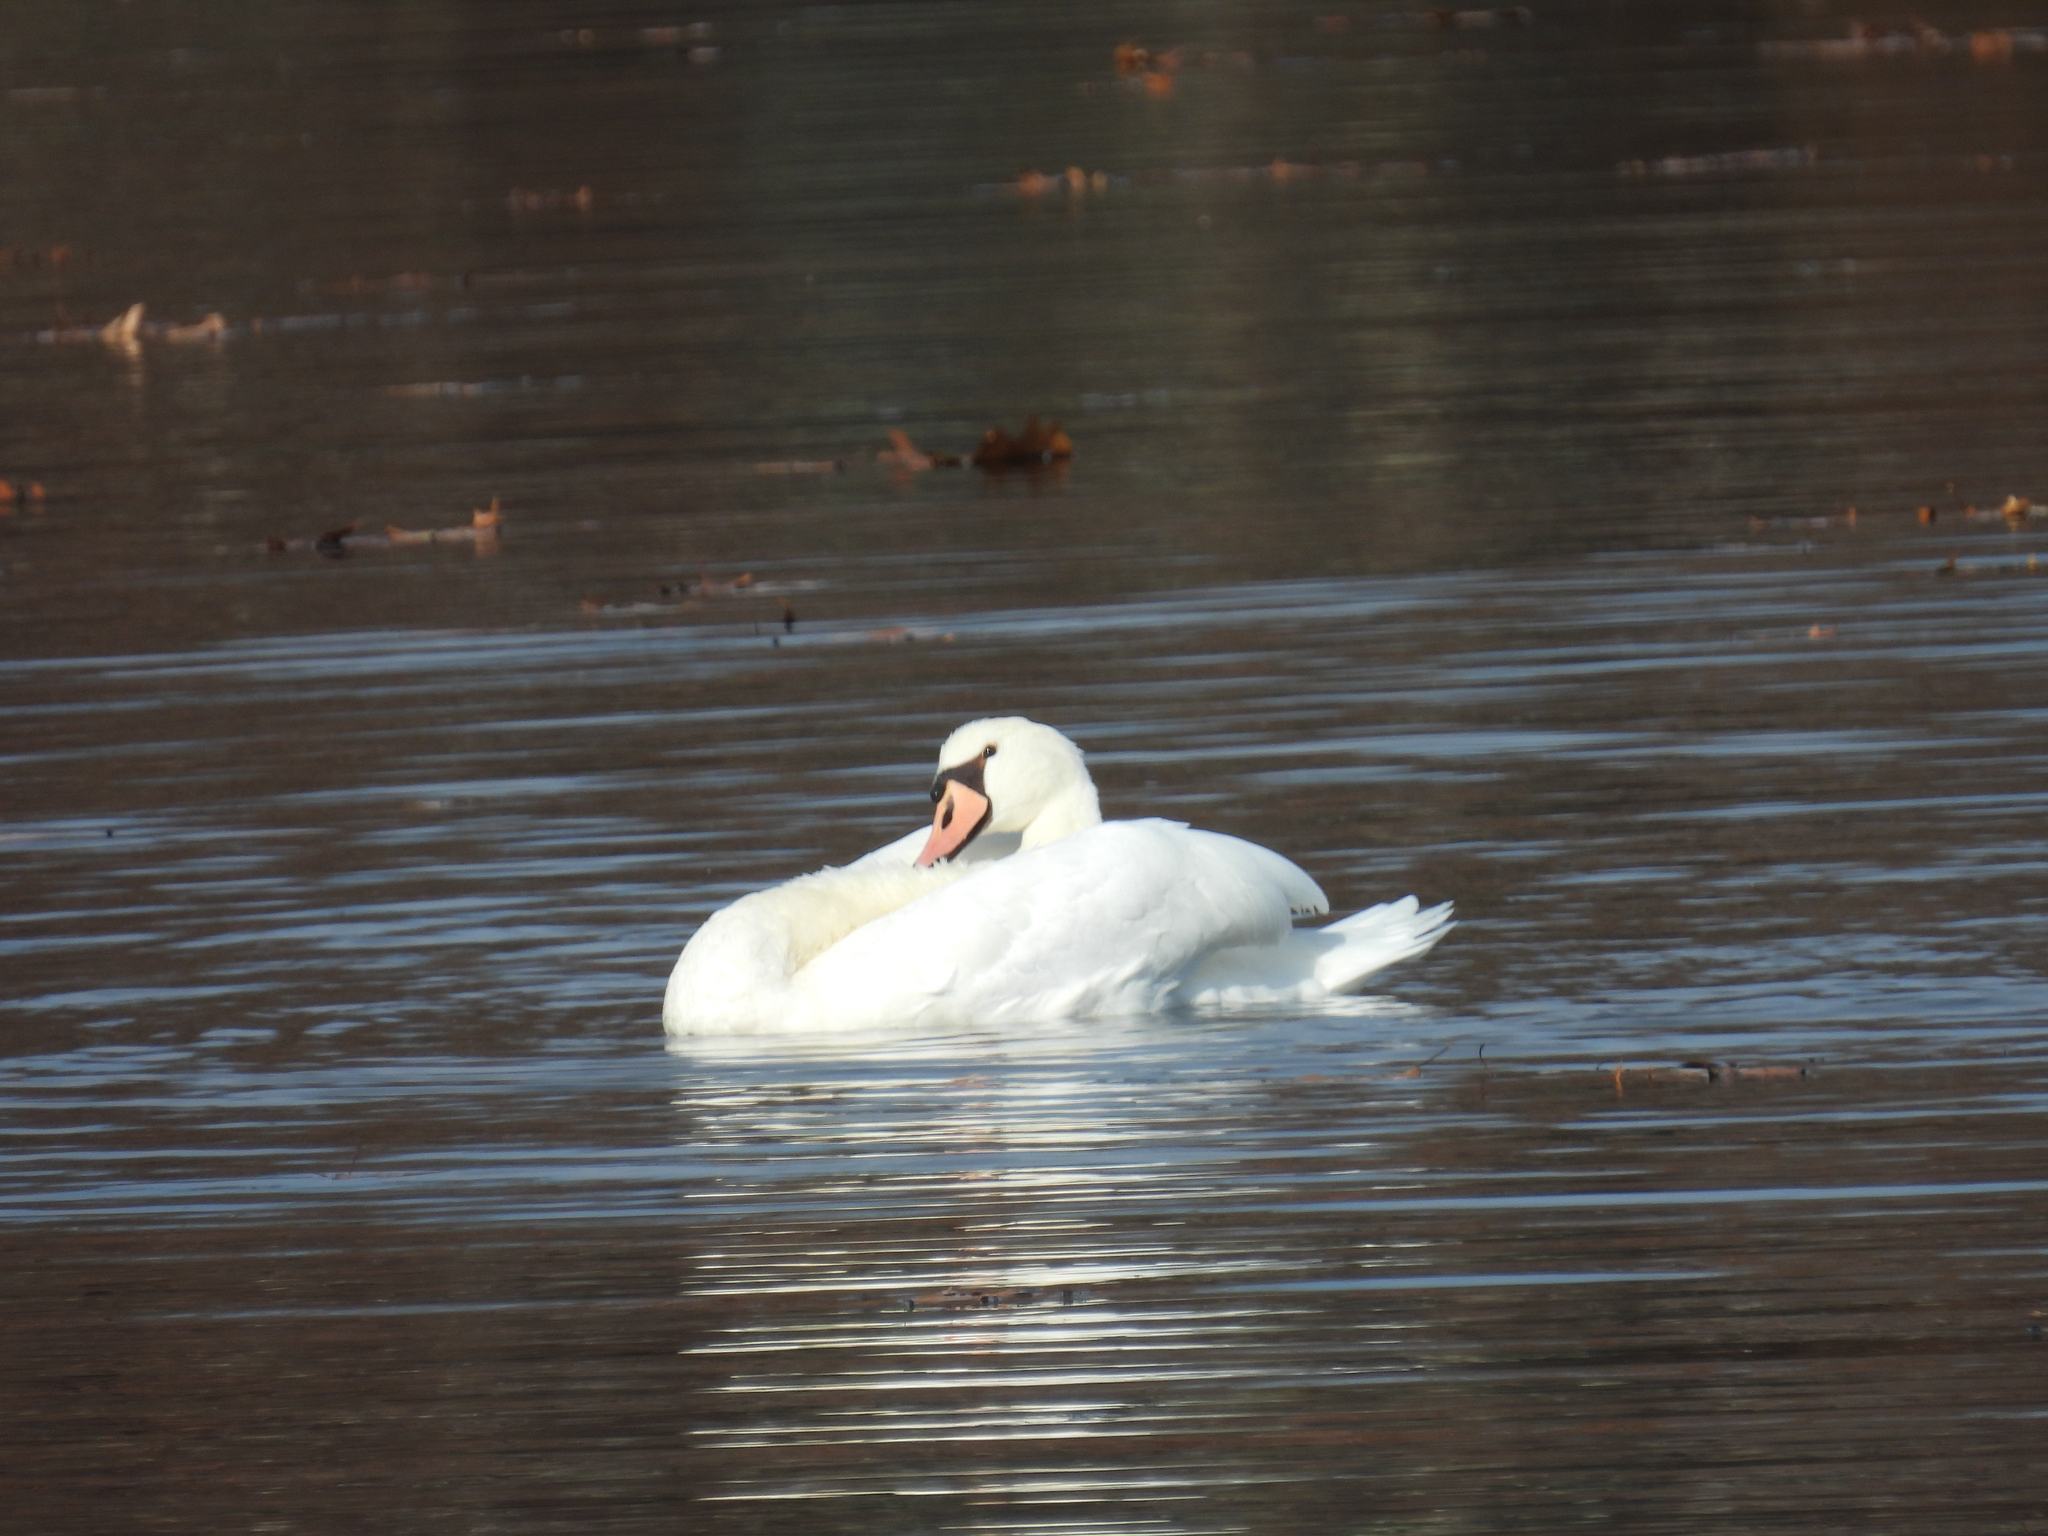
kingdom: Animalia
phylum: Chordata
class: Aves
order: Anseriformes
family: Anatidae
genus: Cygnus
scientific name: Cygnus olor
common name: Mute swan
